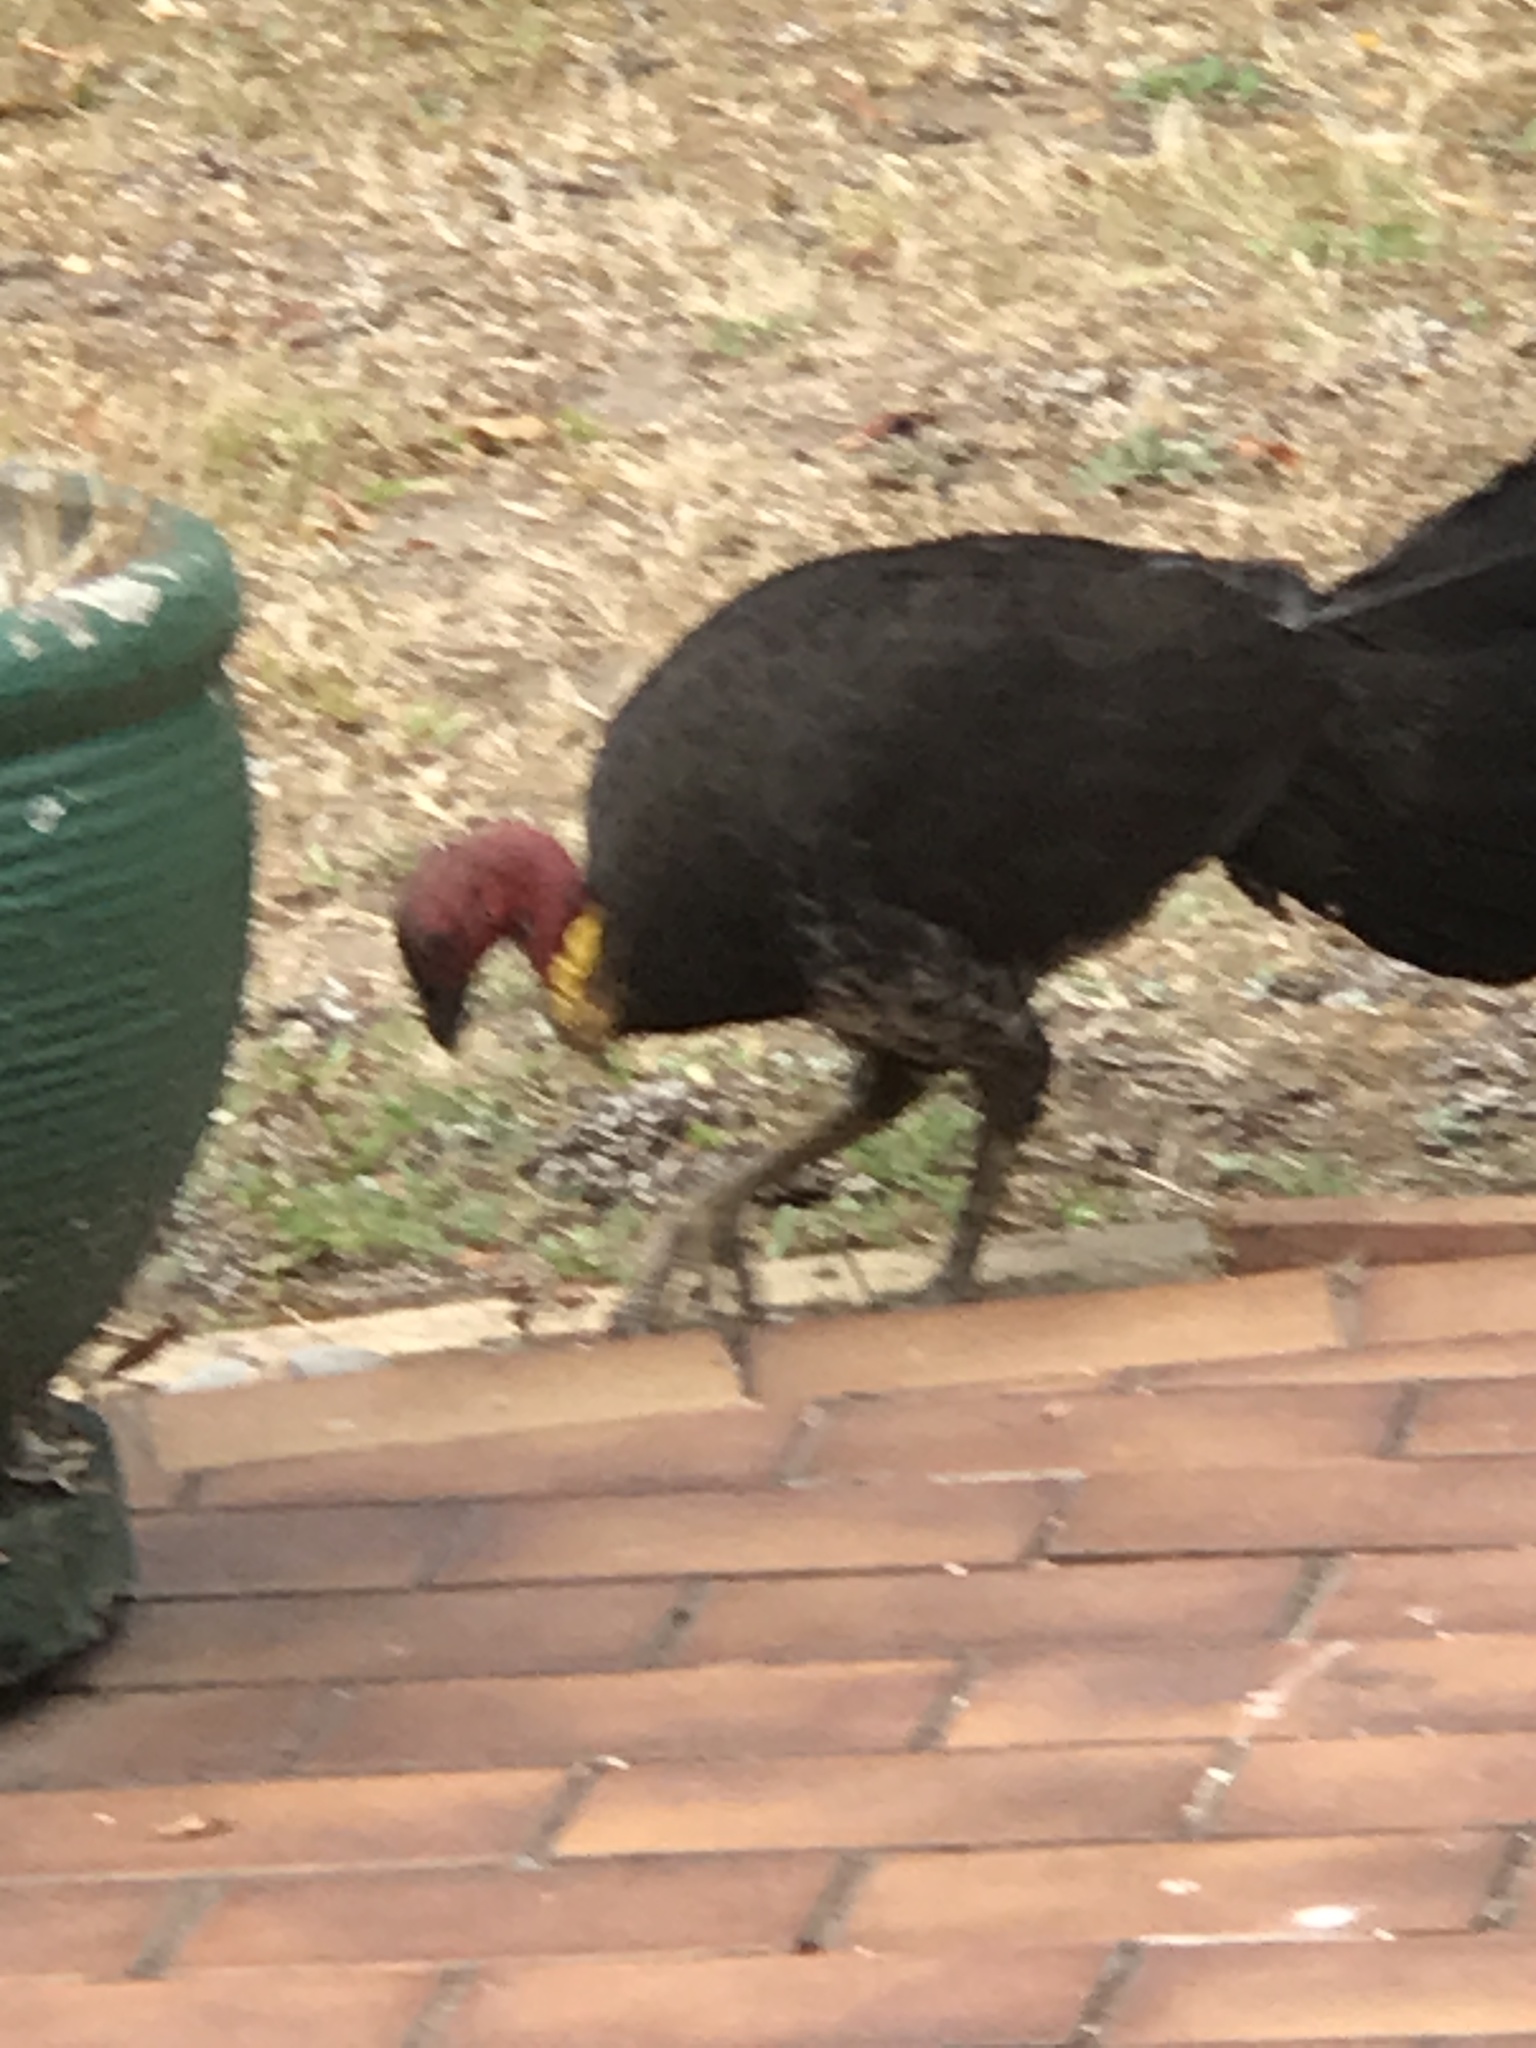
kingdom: Animalia
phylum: Chordata
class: Aves
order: Galliformes
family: Megapodiidae
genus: Alectura
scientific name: Alectura lathami
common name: Australian brushturkey
